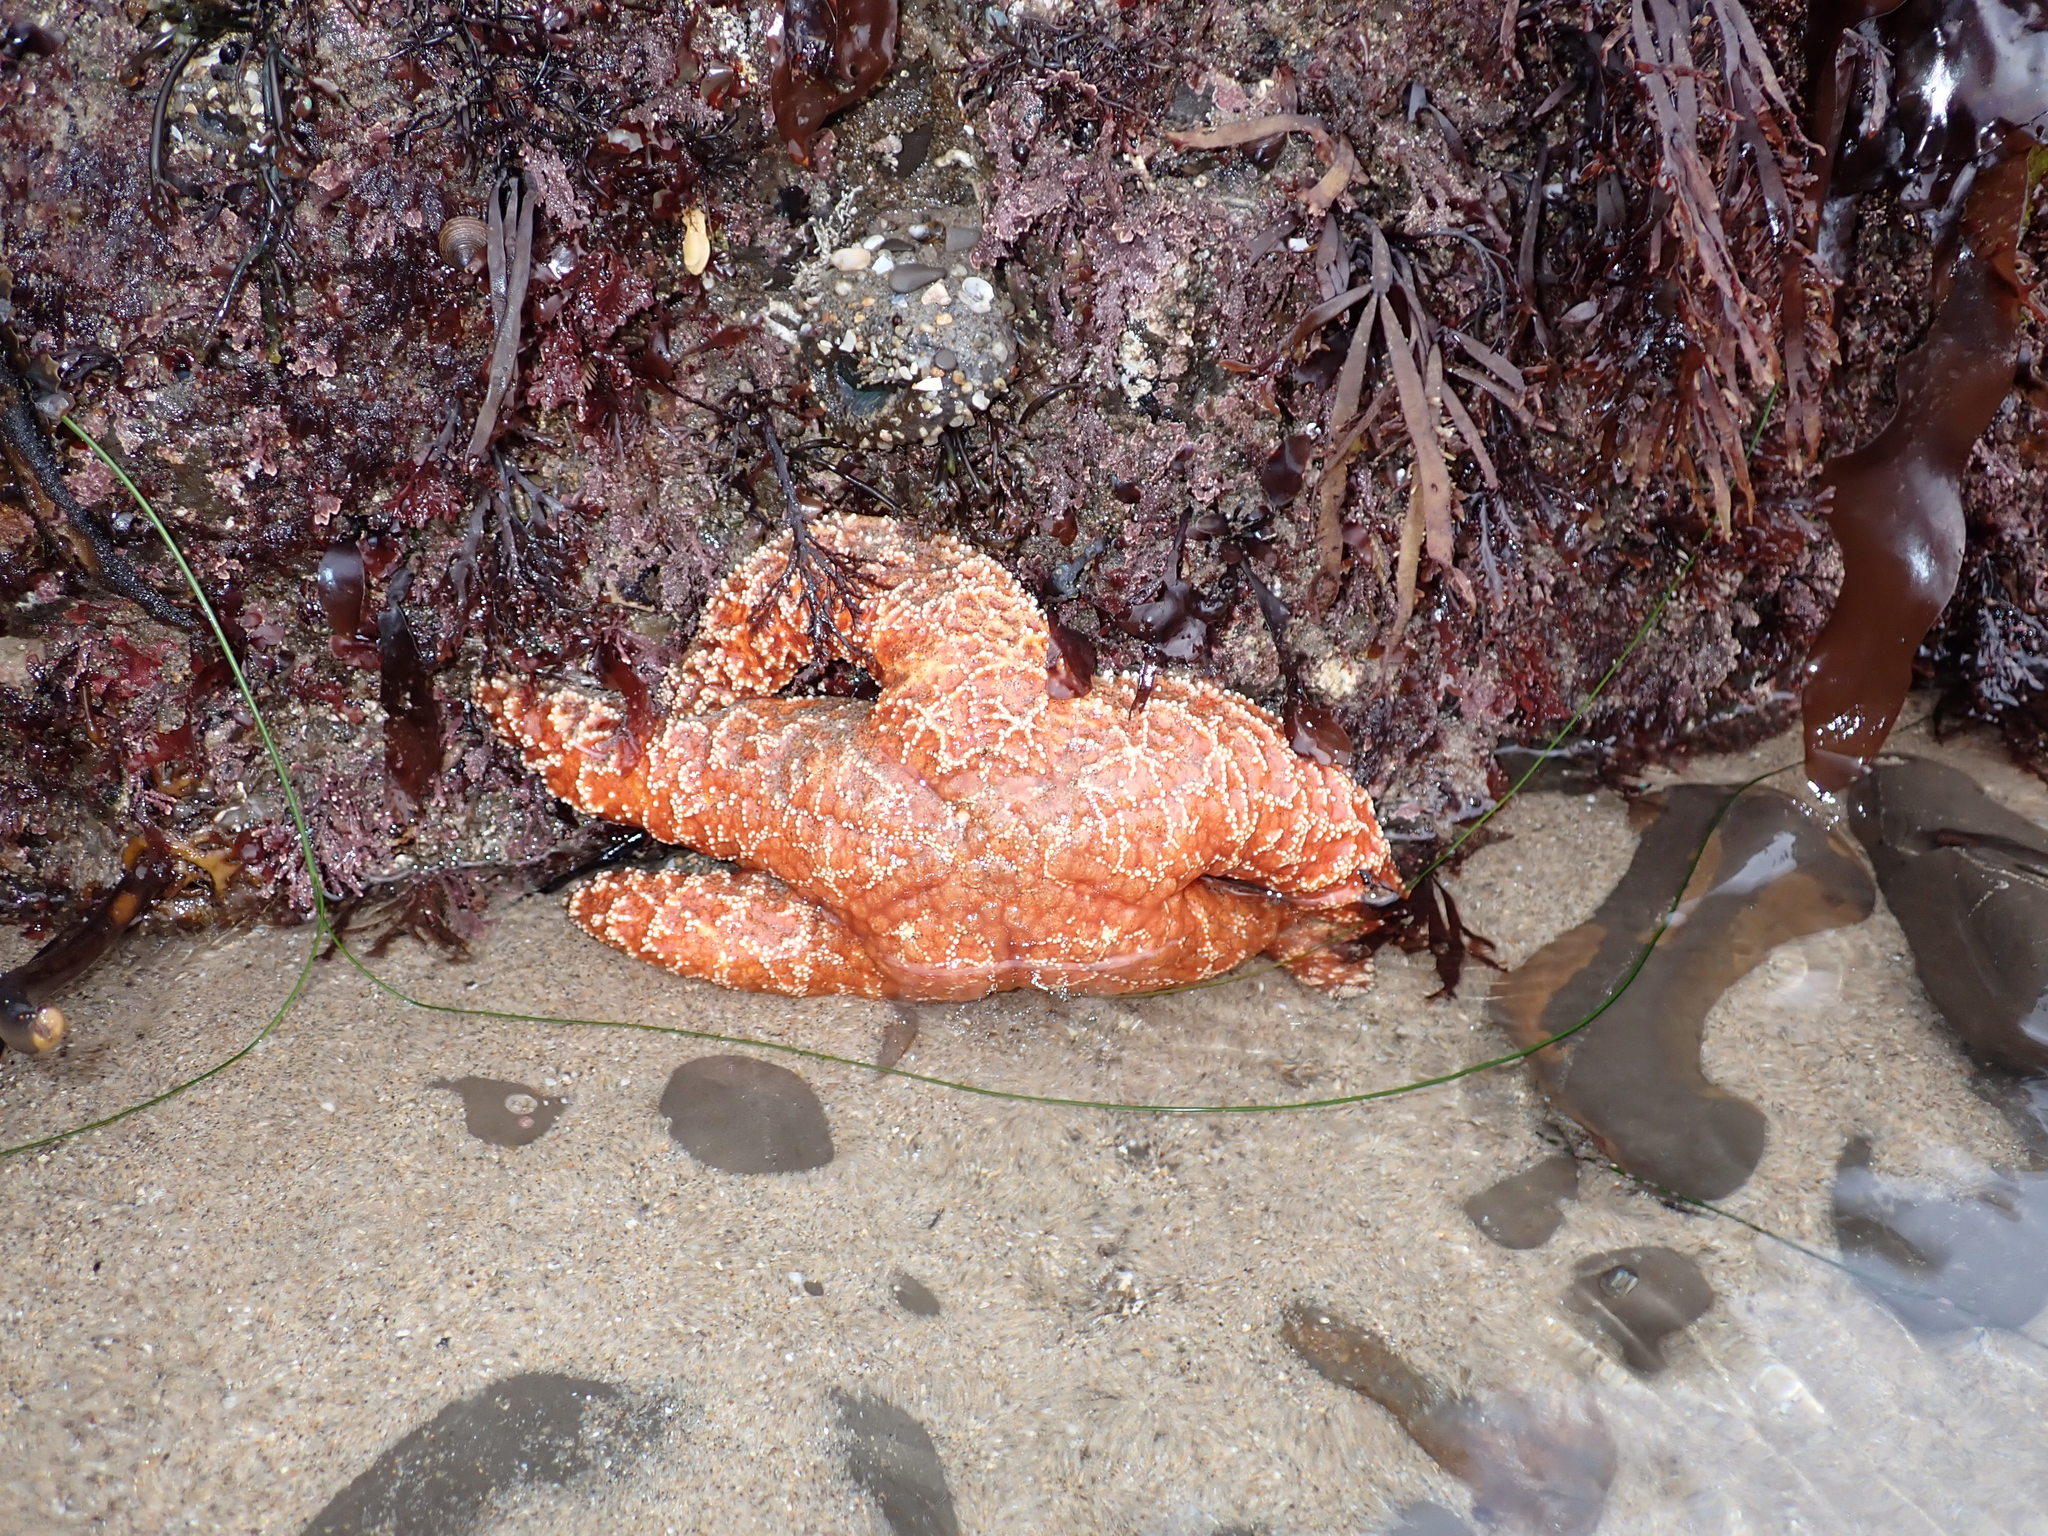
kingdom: Animalia
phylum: Echinodermata
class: Asteroidea
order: Forcipulatida
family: Asteriidae
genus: Pisaster
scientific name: Pisaster ochraceus
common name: Ochre stars
